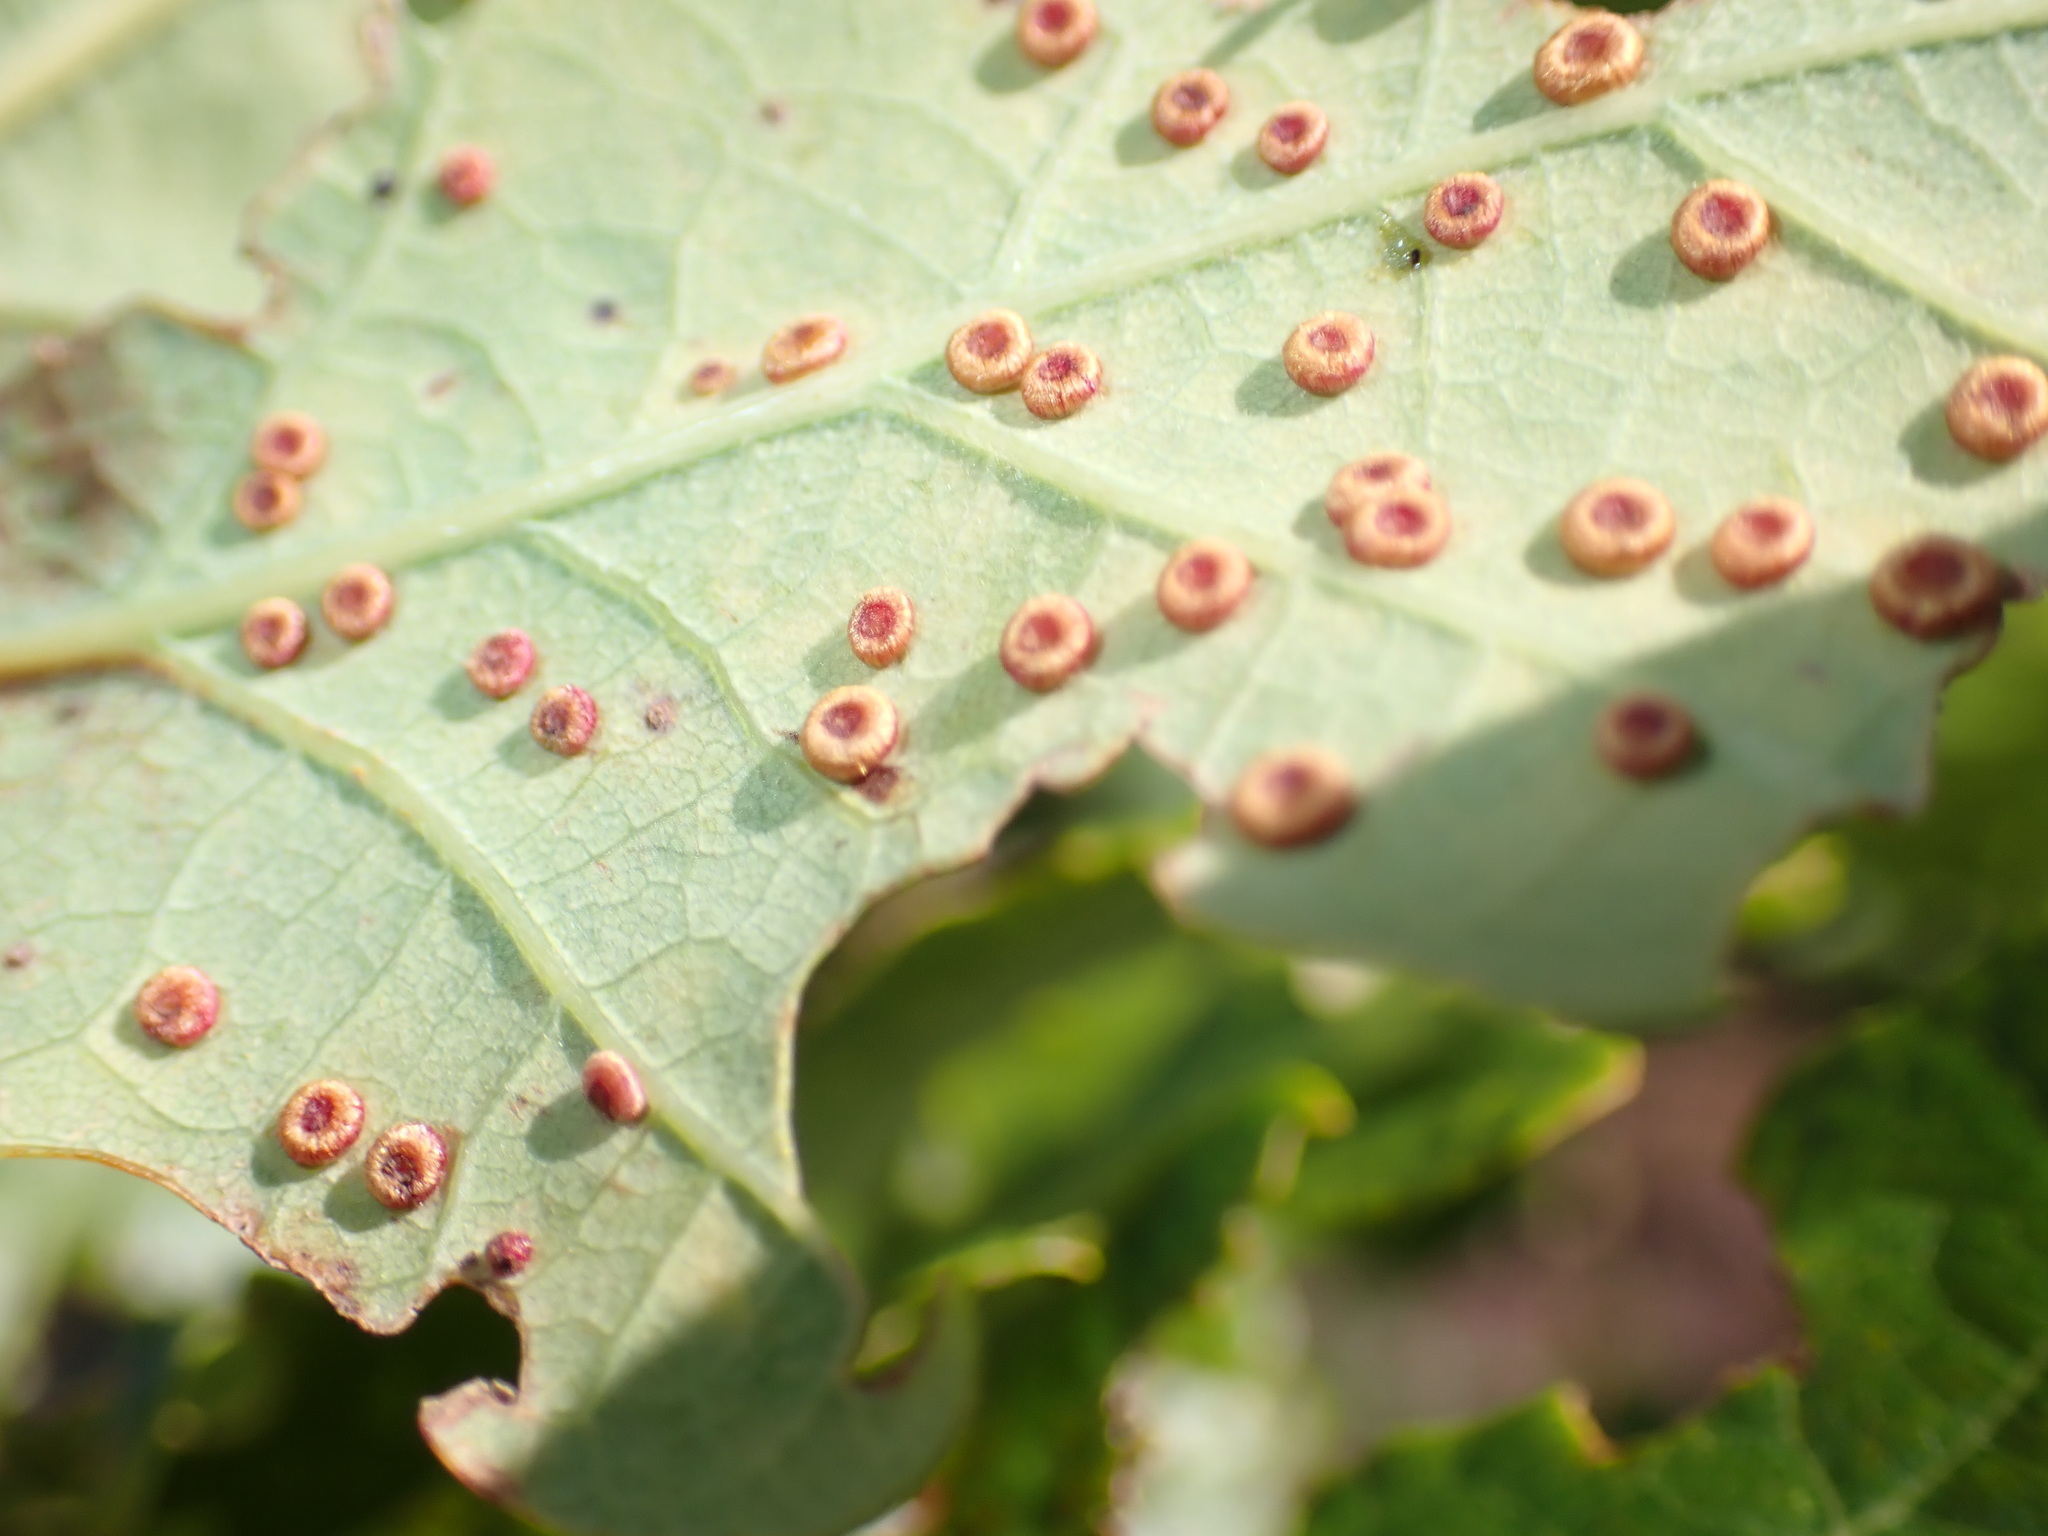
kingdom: Animalia
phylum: Arthropoda
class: Insecta
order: Hymenoptera
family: Cynipidae
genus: Neuroterus
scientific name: Neuroterus numismalis
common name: Silk-button spangle gall
